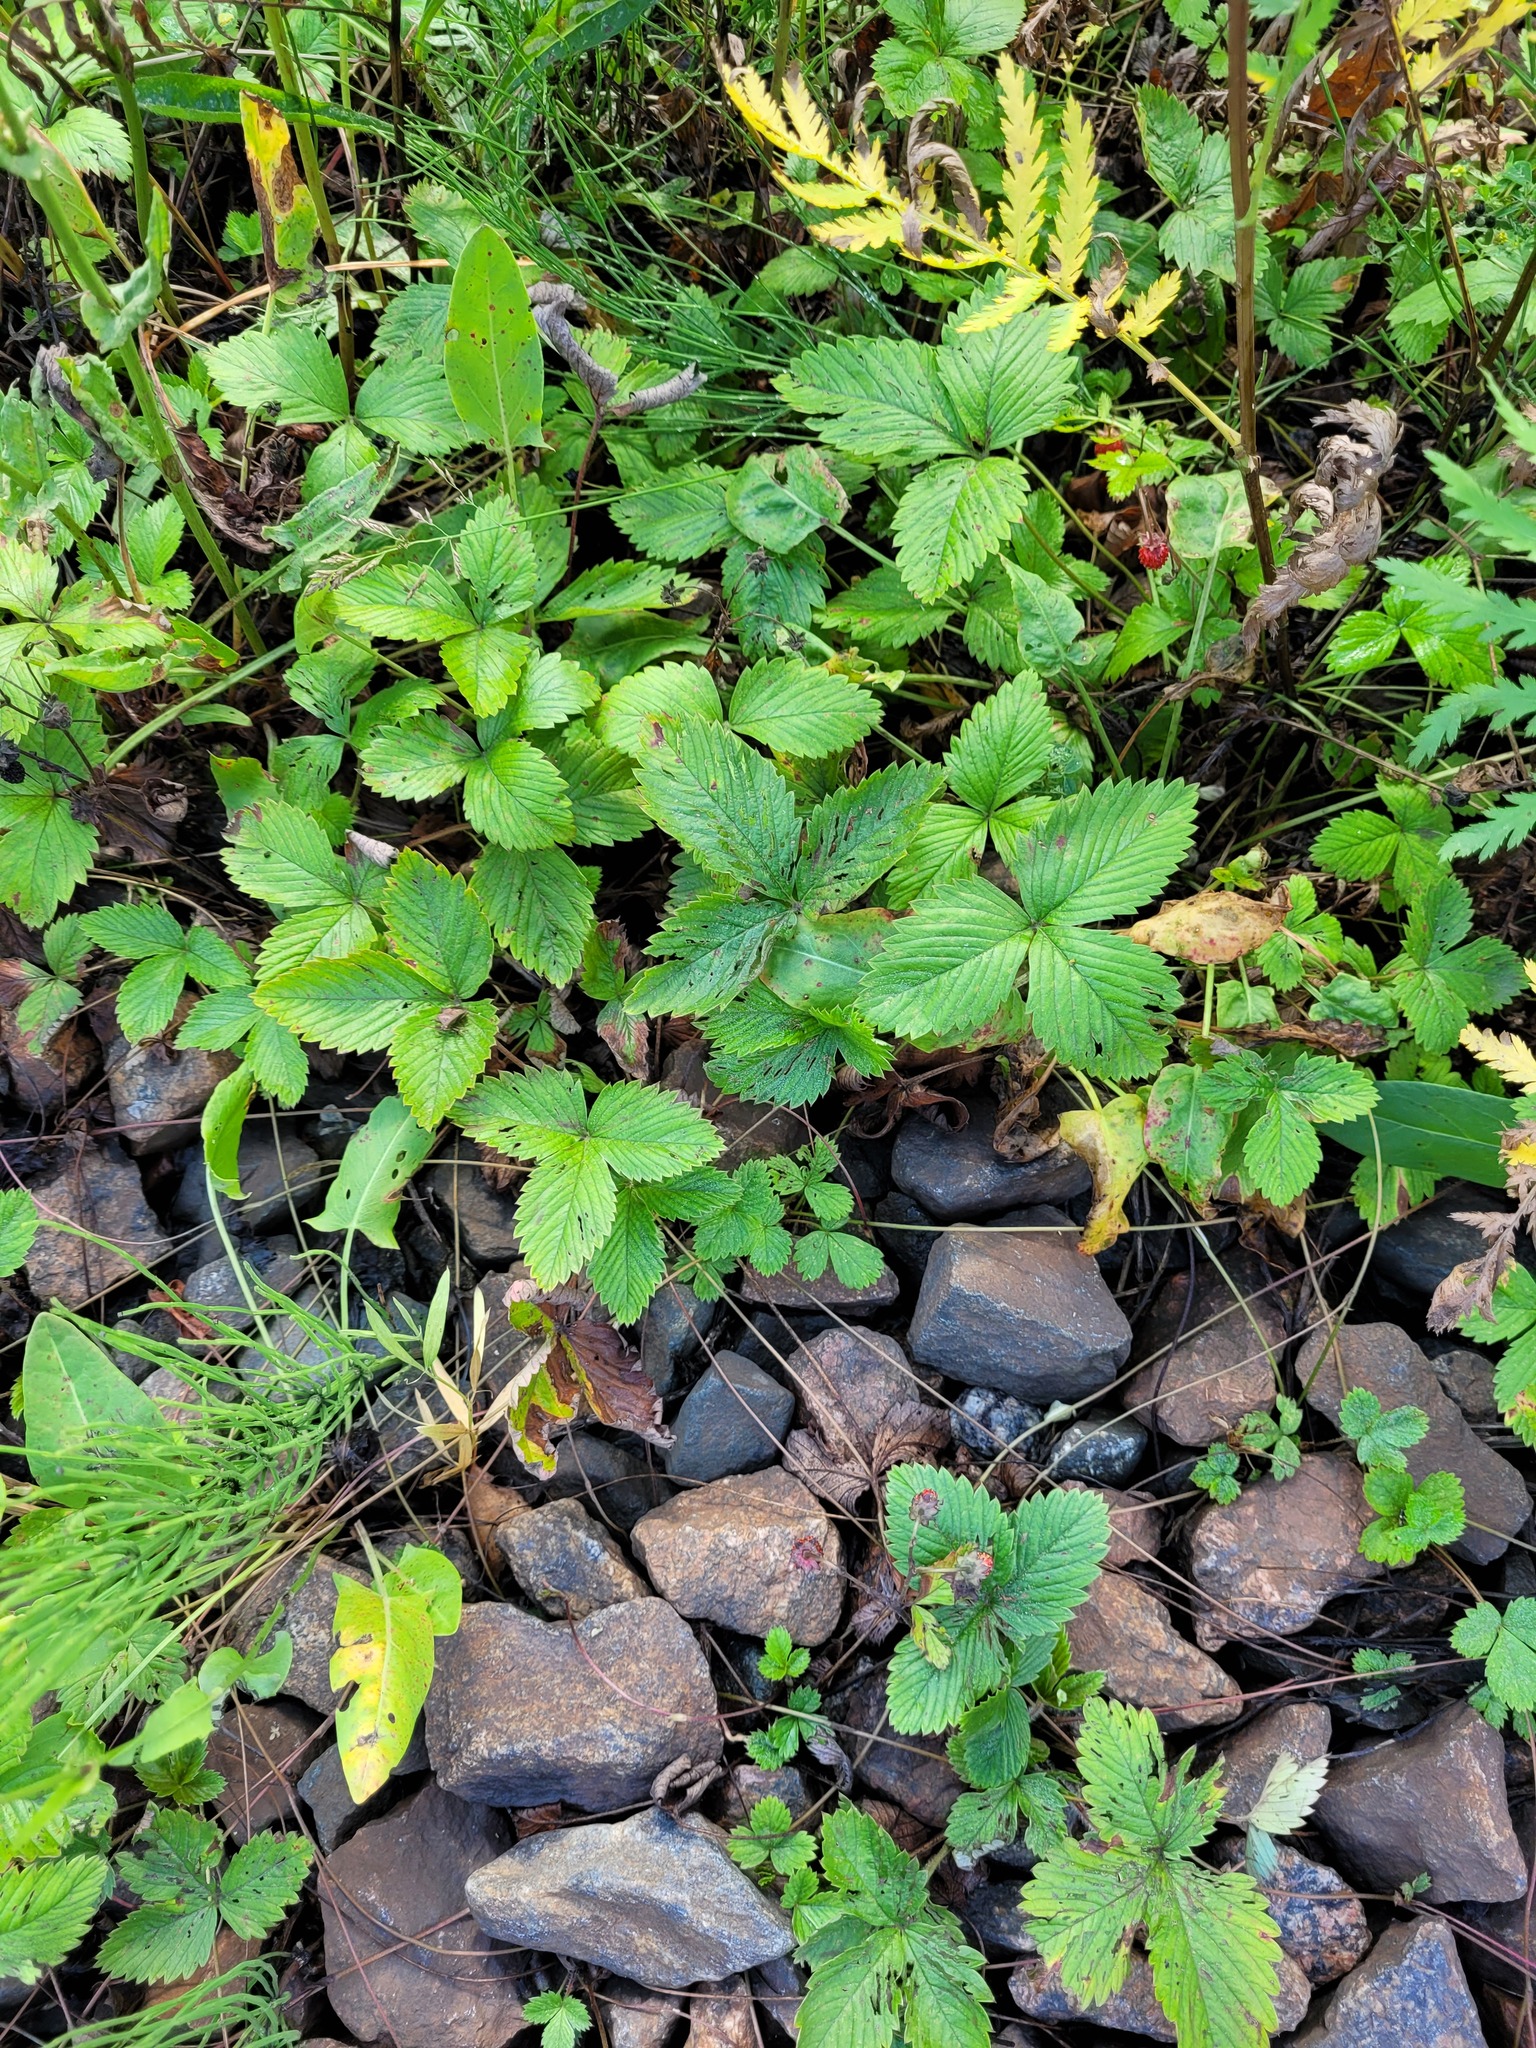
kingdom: Plantae
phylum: Tracheophyta
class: Magnoliopsida
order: Rosales
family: Rosaceae
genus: Fragaria
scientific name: Fragaria vesca
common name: Wild strawberry
